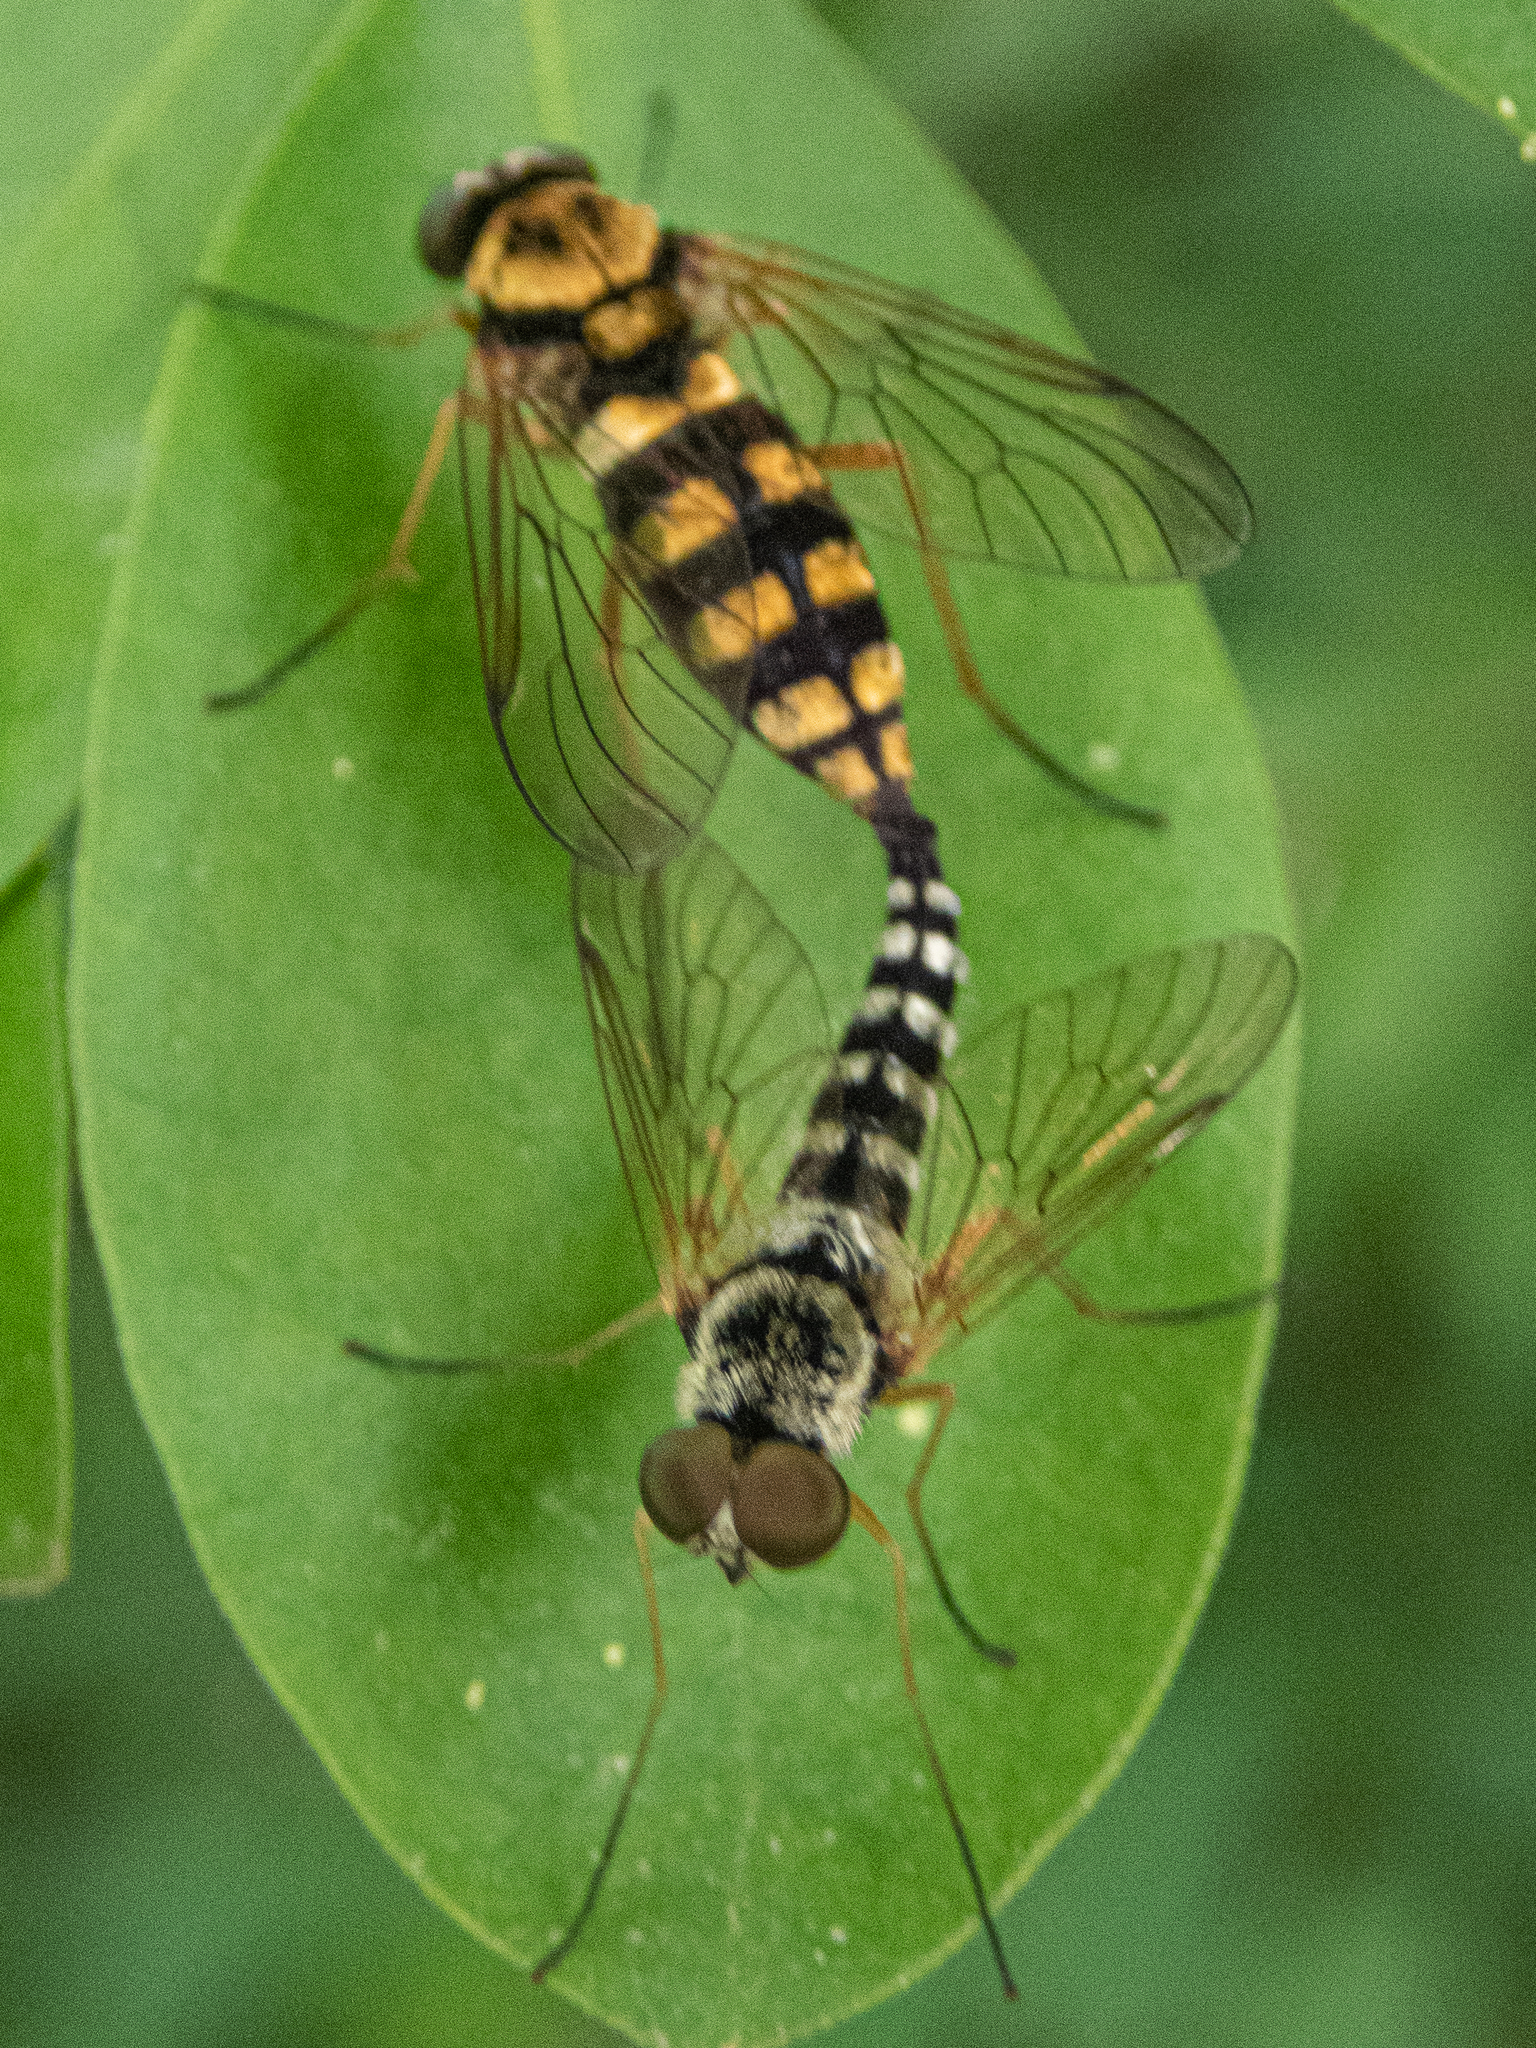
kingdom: Animalia
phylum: Arthropoda
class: Insecta
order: Diptera
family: Rhagionidae
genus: Chrysopilus
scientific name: Chrysopilus ornatus
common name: Ornate snipe fly
